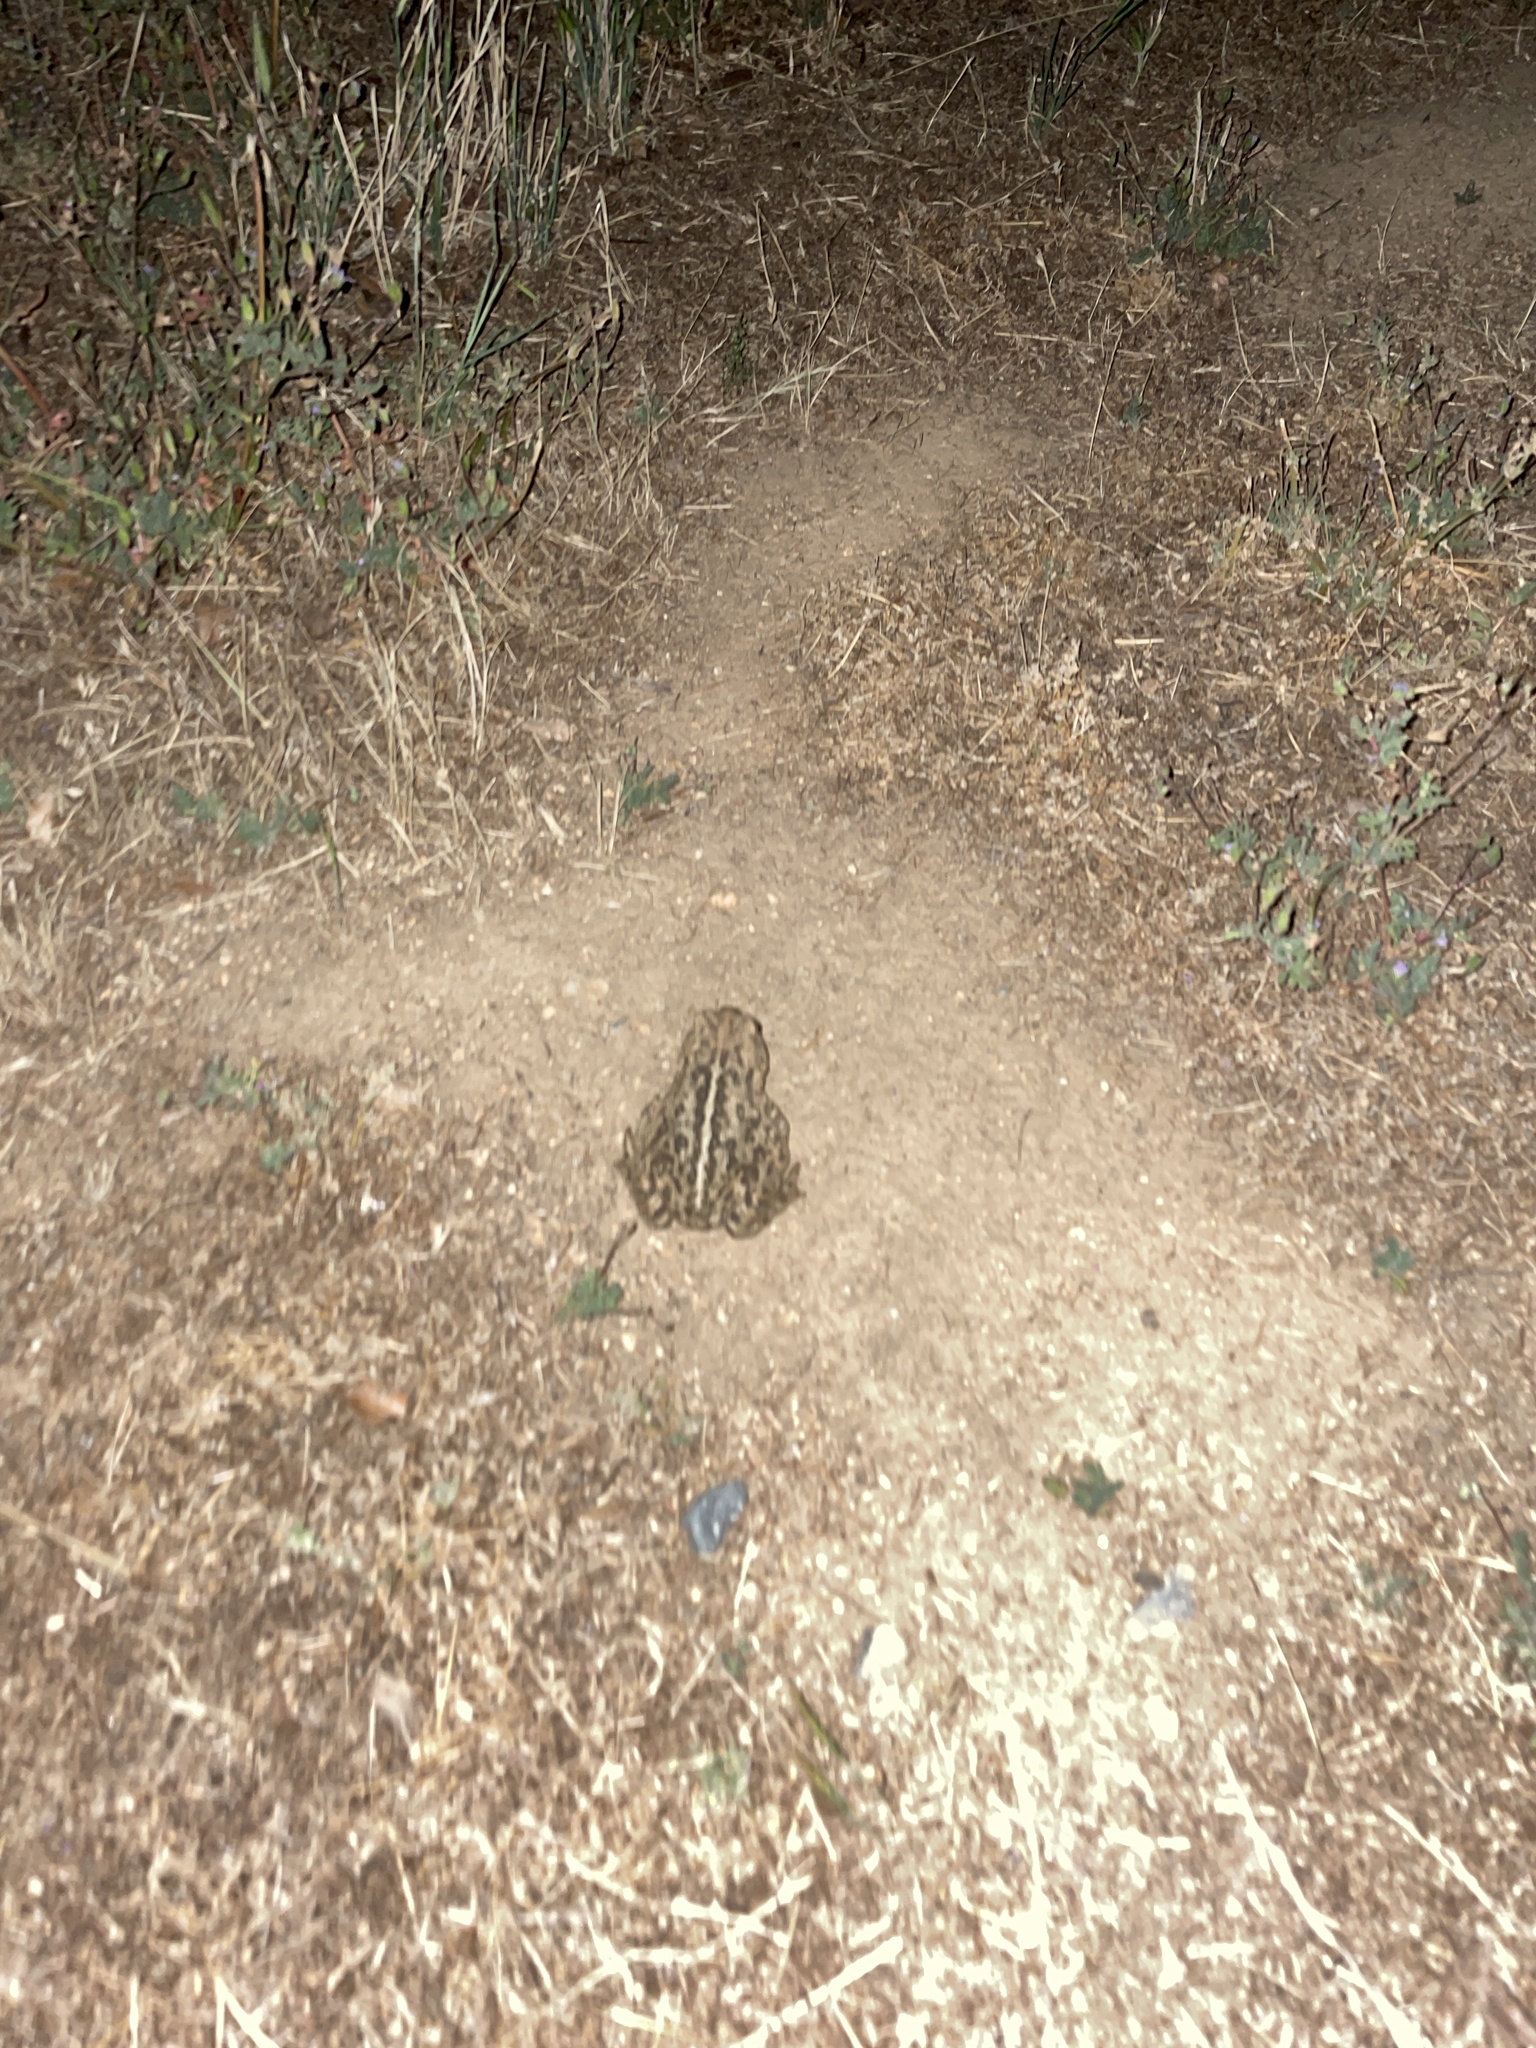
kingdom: Animalia
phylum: Chordata
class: Amphibia
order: Anura
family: Bufonidae
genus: Anaxyrus
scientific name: Anaxyrus boreas
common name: Western toad
